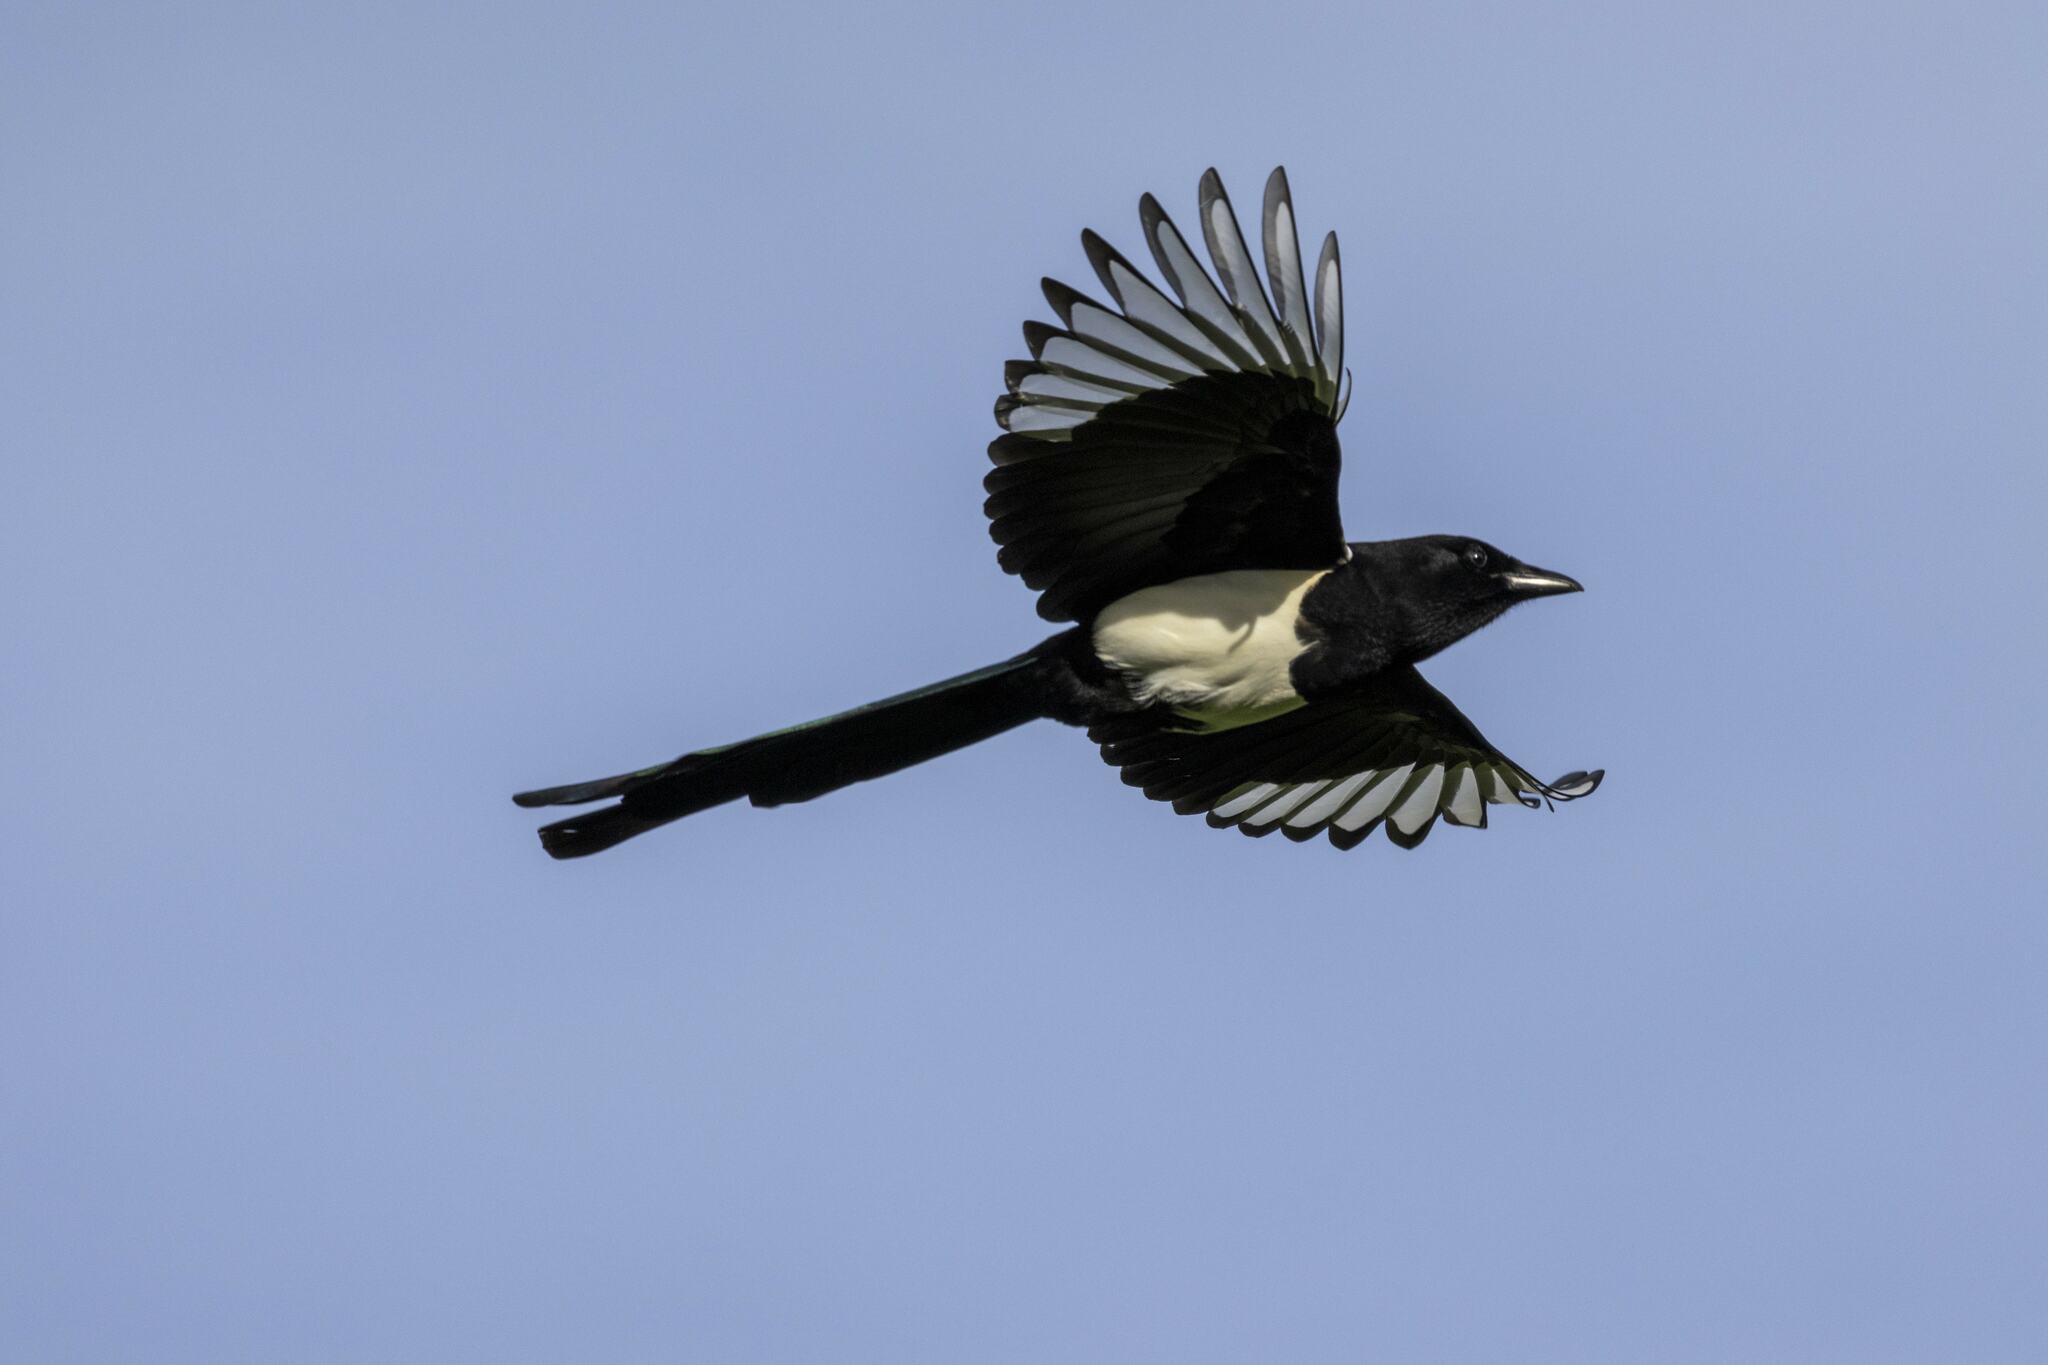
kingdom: Animalia
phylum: Chordata
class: Aves
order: Passeriformes
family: Corvidae
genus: Pica
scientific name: Pica pica
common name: Eurasian magpie
